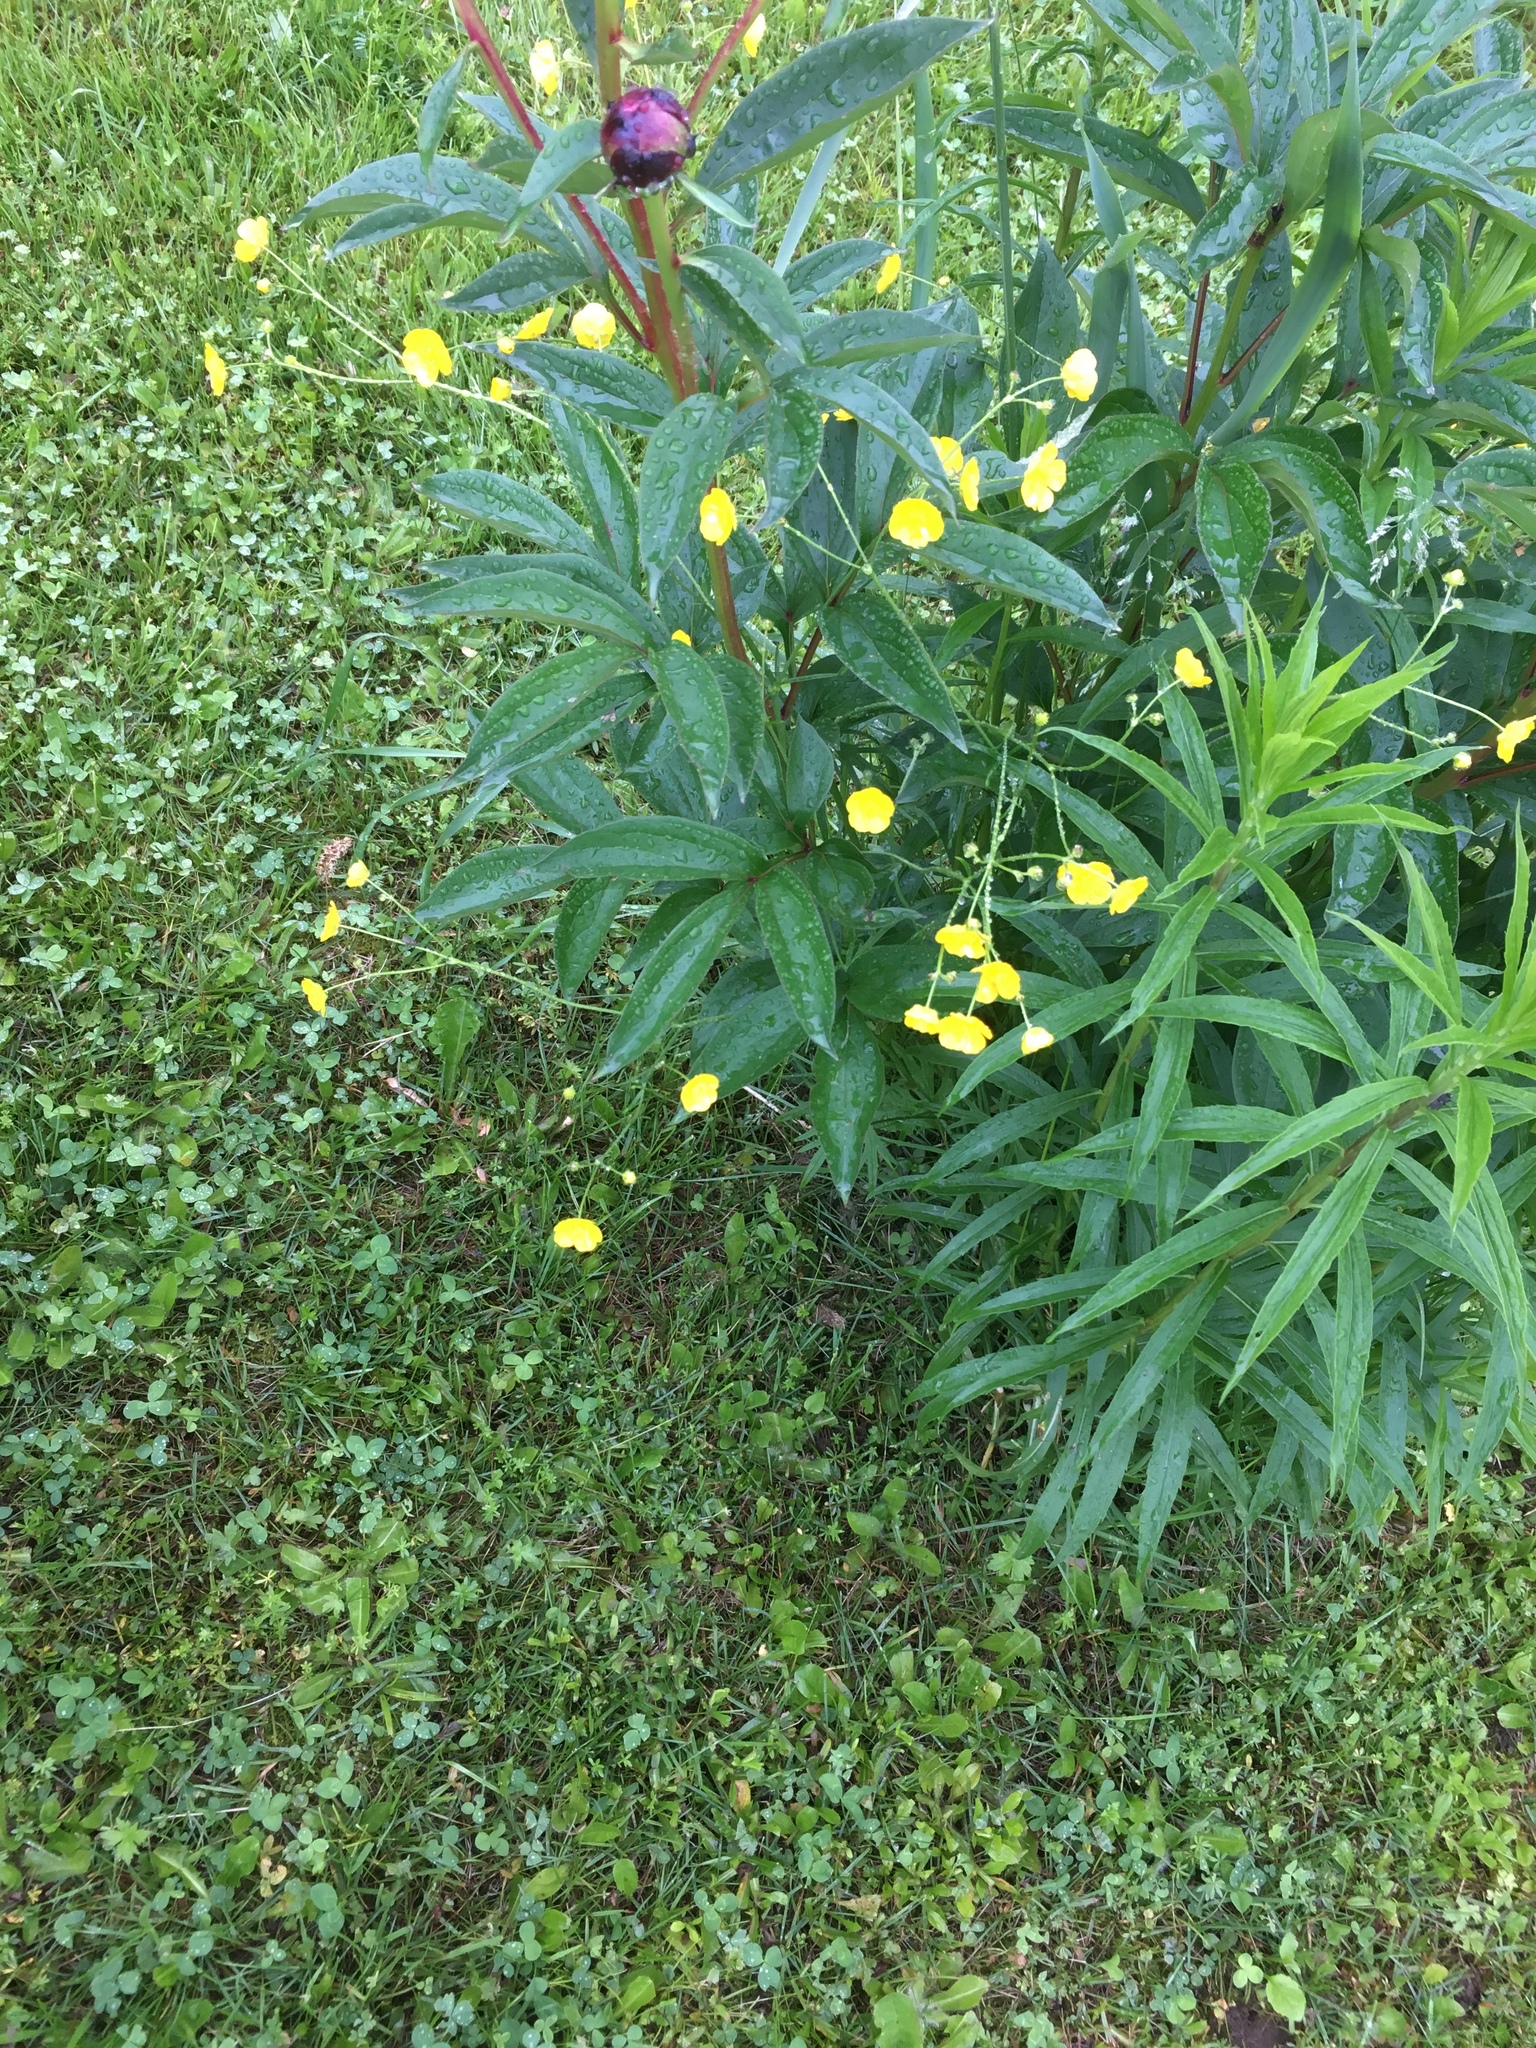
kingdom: Plantae
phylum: Tracheophyta
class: Magnoliopsida
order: Ranunculales
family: Ranunculaceae
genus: Ranunculus
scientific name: Ranunculus acris
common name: Meadow buttercup
